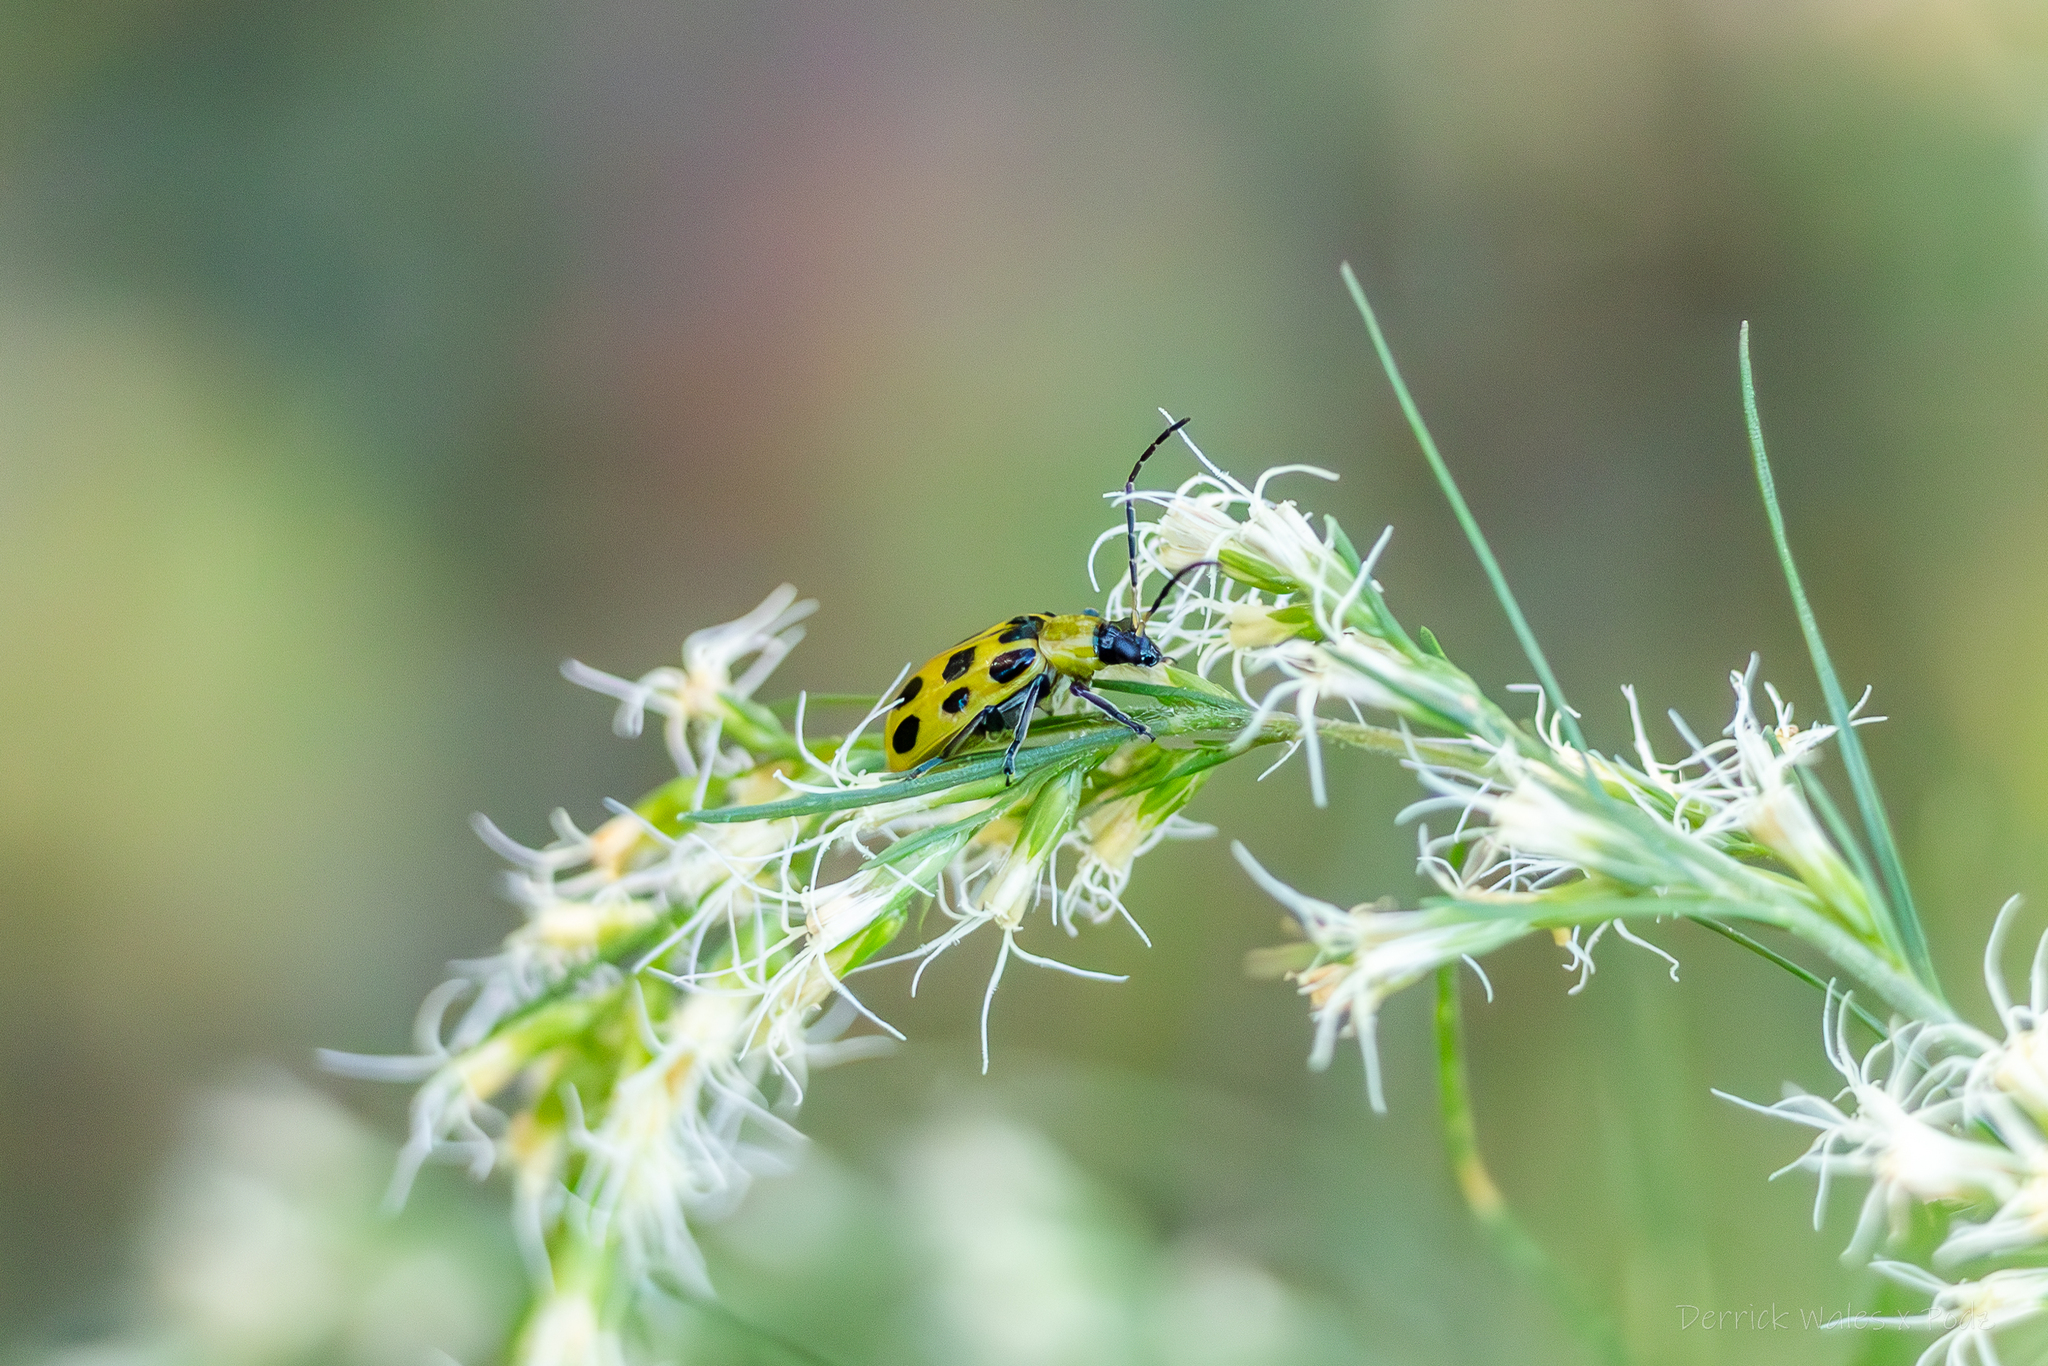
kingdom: Animalia
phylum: Arthropoda
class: Insecta
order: Coleoptera
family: Chrysomelidae
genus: Diabrotica
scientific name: Diabrotica undecimpunctata
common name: Spotted cucumber beetle
